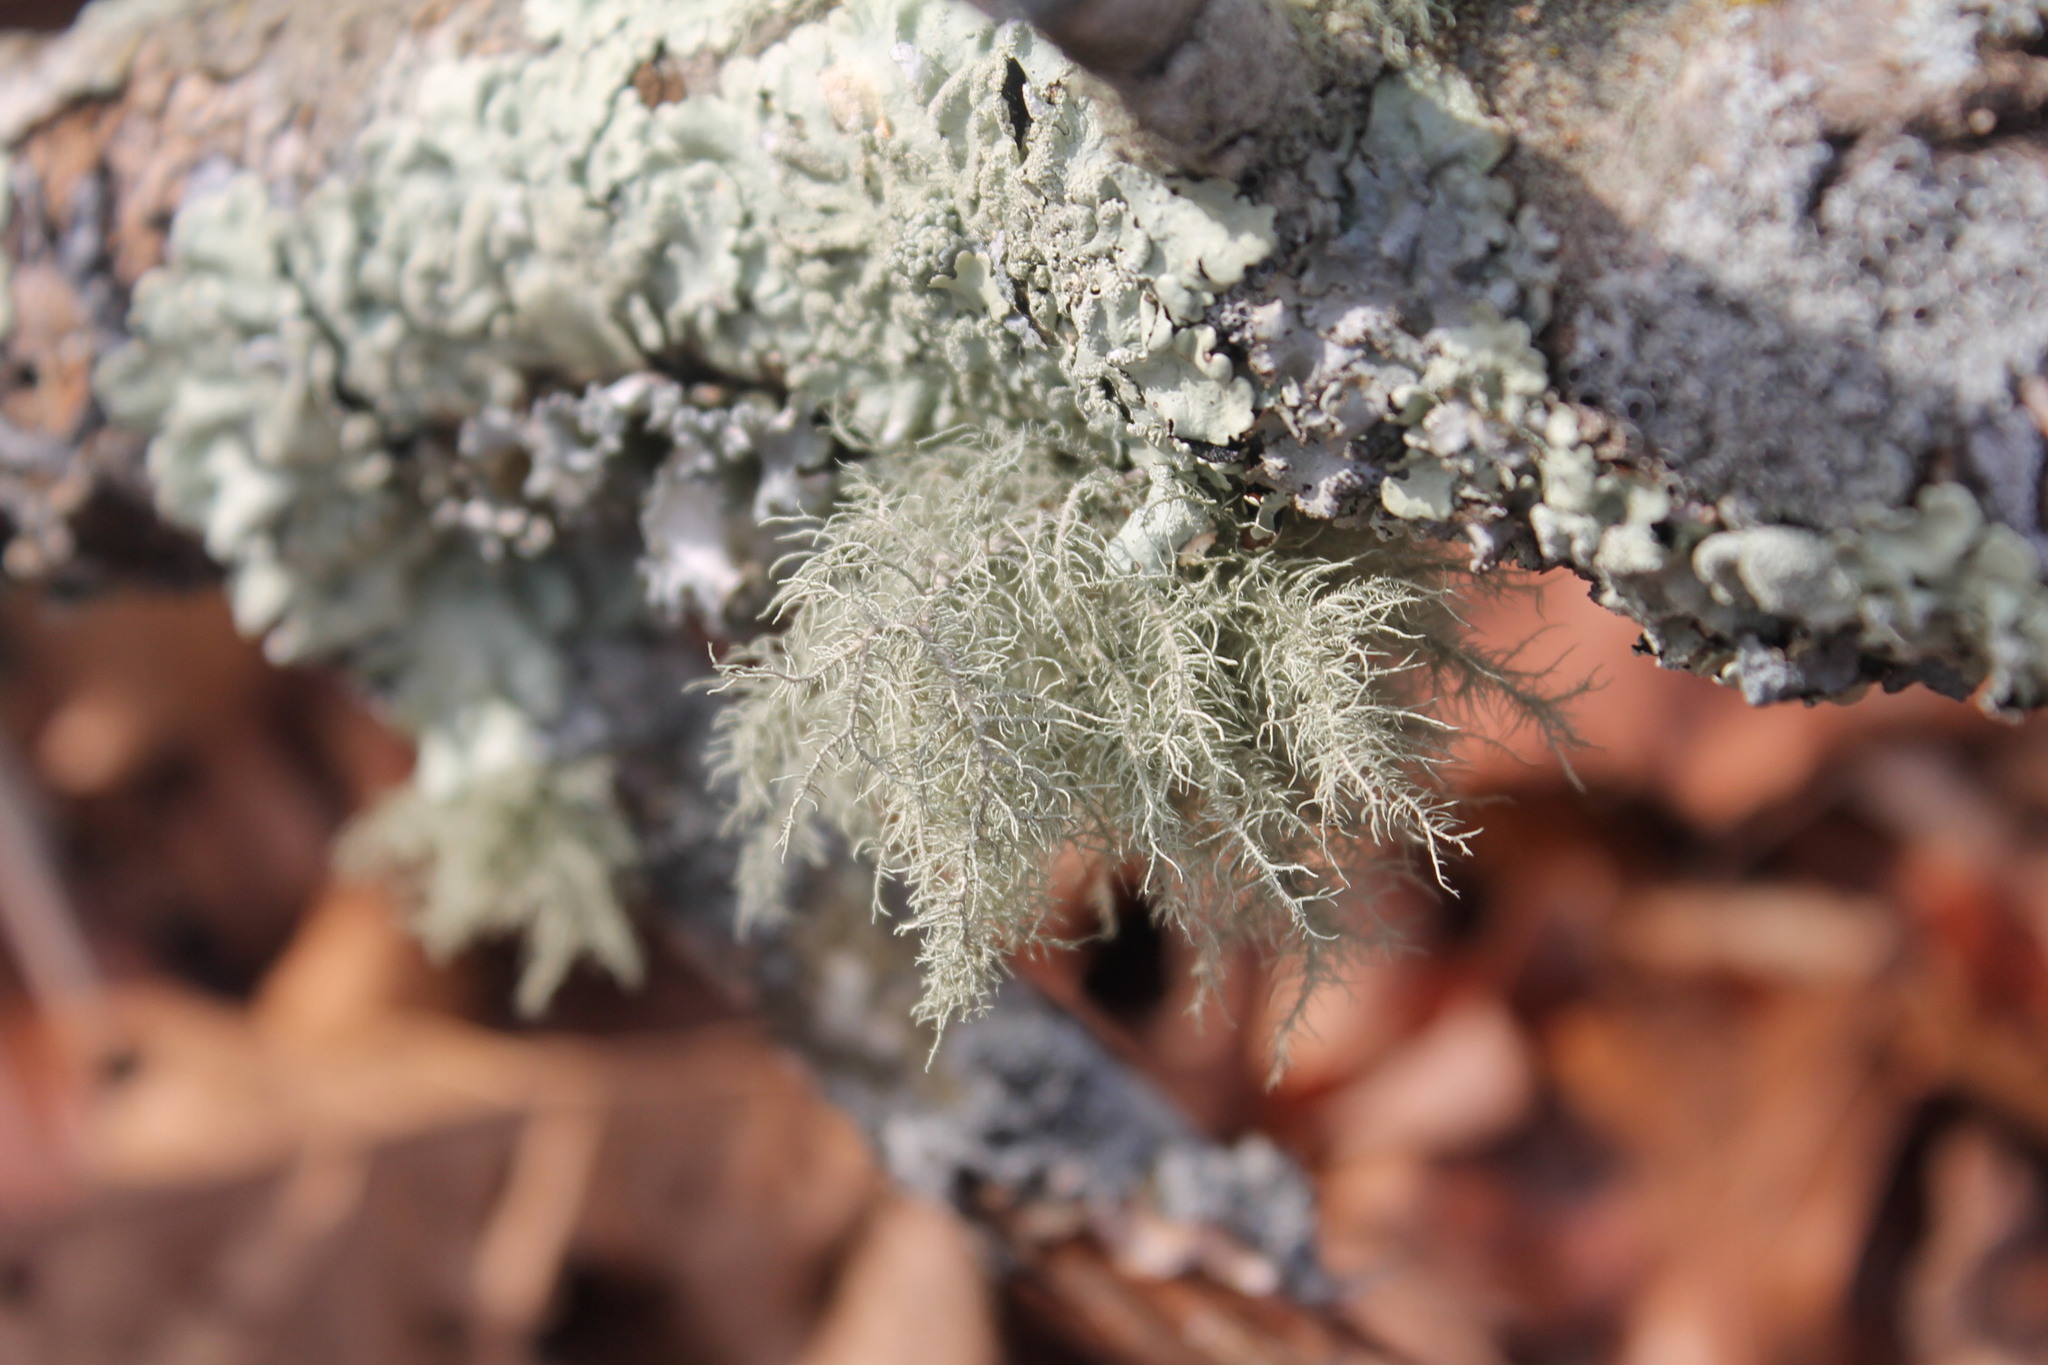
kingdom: Fungi
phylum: Ascomycota
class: Lecanoromycetes
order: Lecanorales
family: Parmeliaceae
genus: Usnea
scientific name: Usnea hirta
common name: Bristly beard lichen
